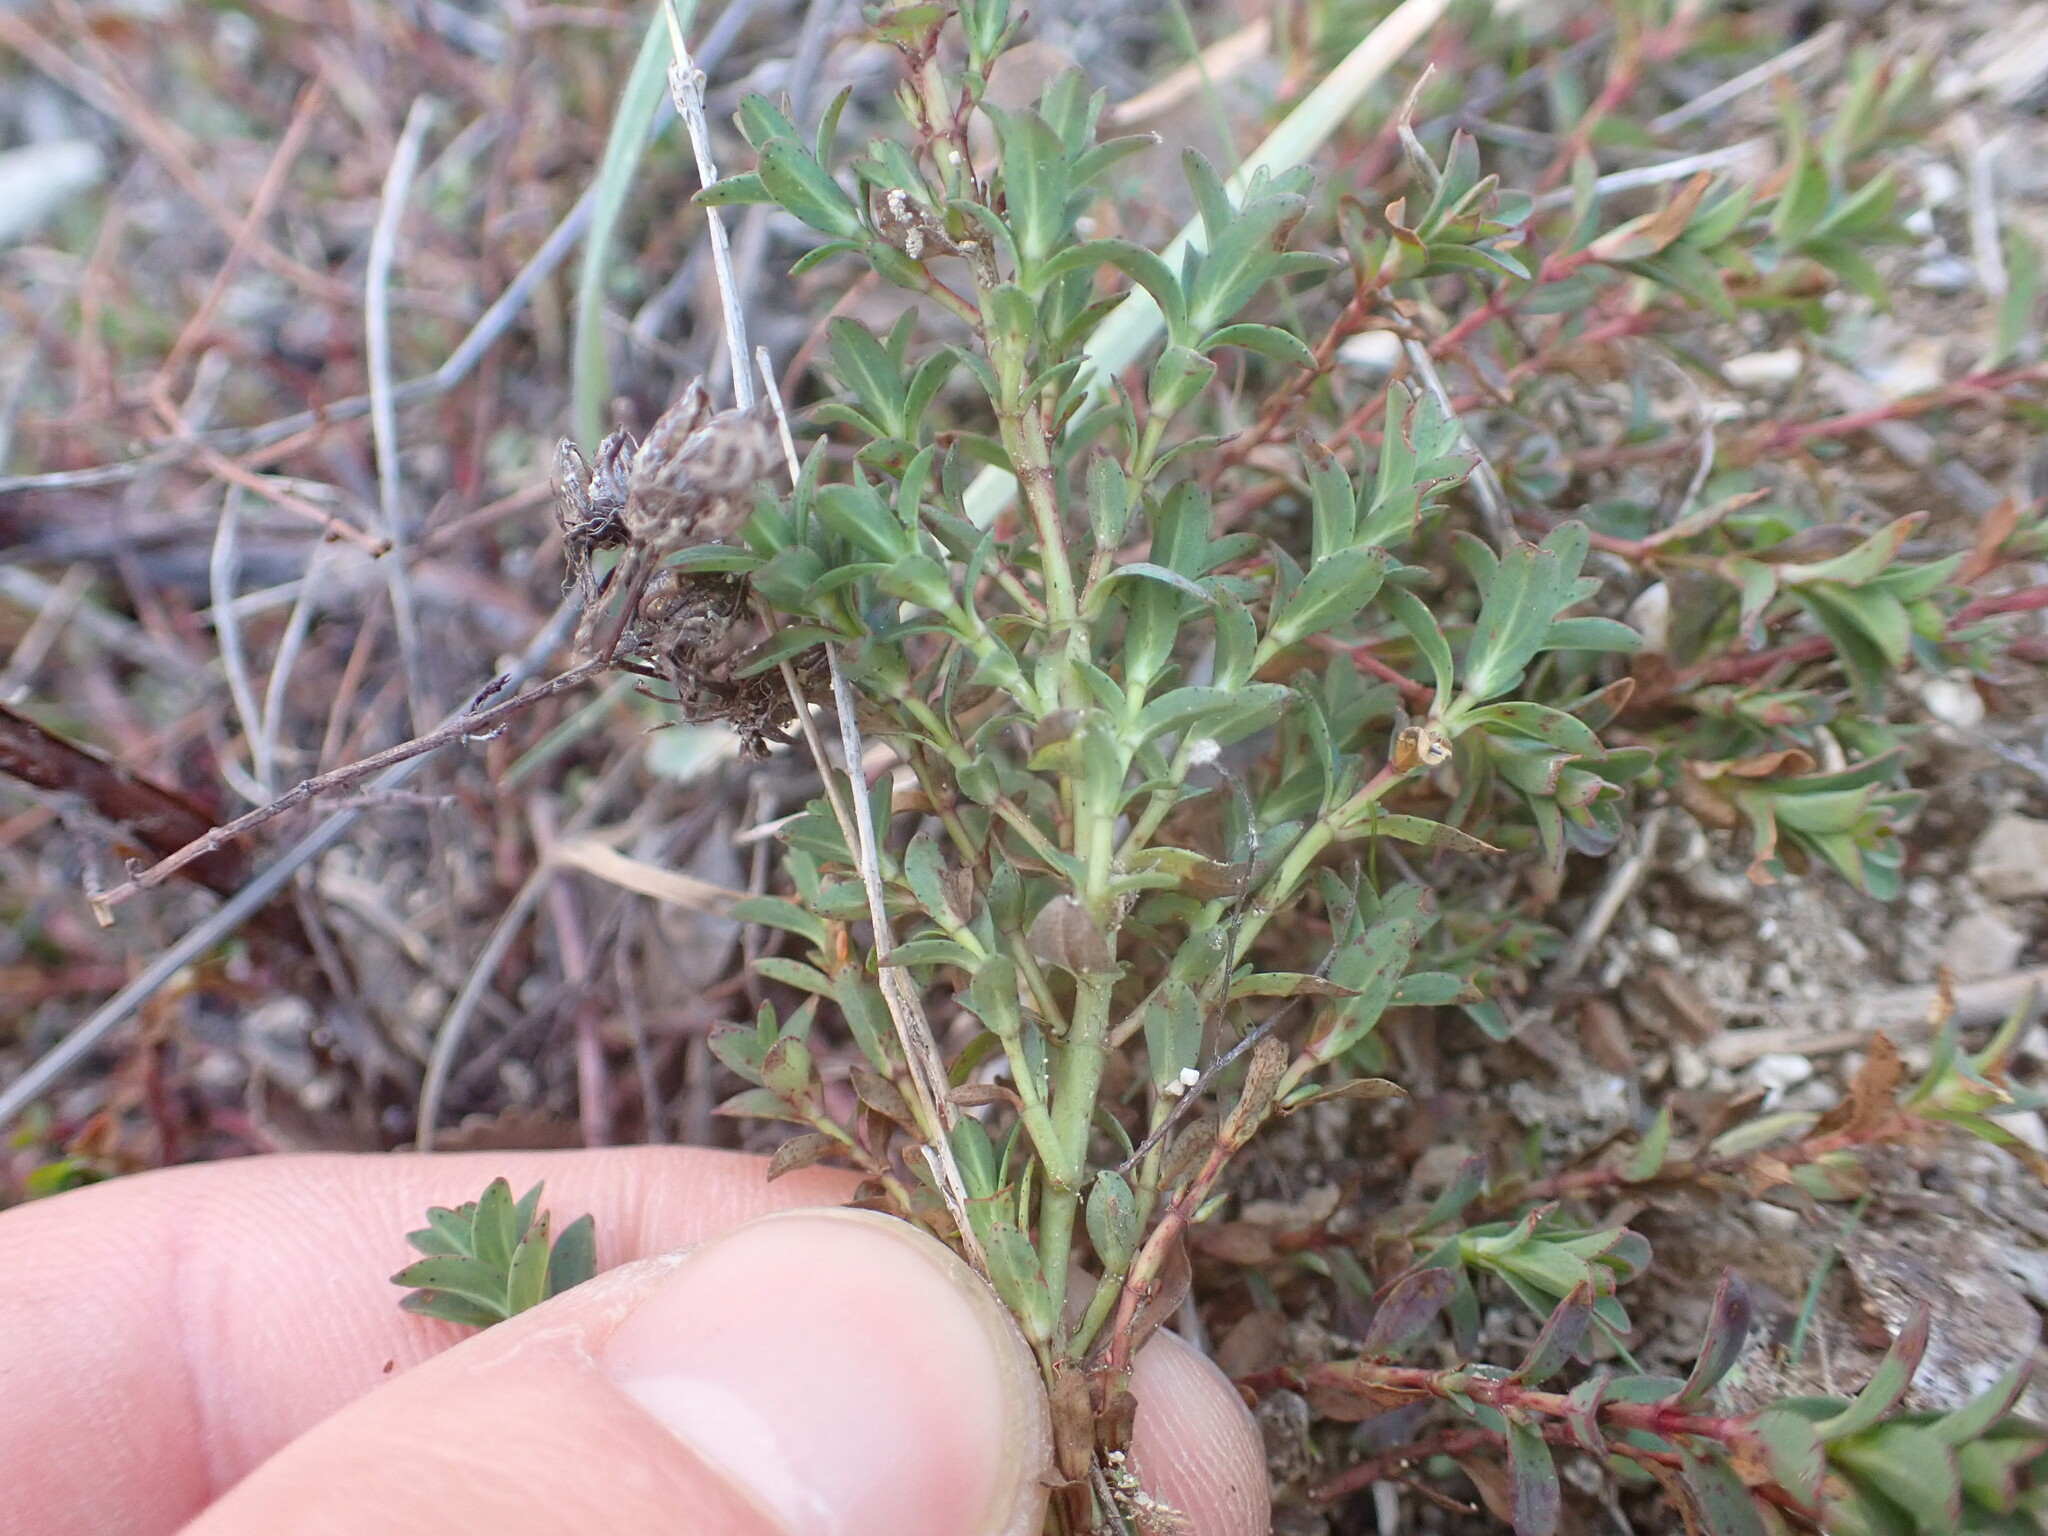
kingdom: Plantae
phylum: Tracheophyta
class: Magnoliopsida
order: Malpighiales
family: Hypericaceae
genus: Hypericum
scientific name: Hypericum perforatum
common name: Common st. johnswort
